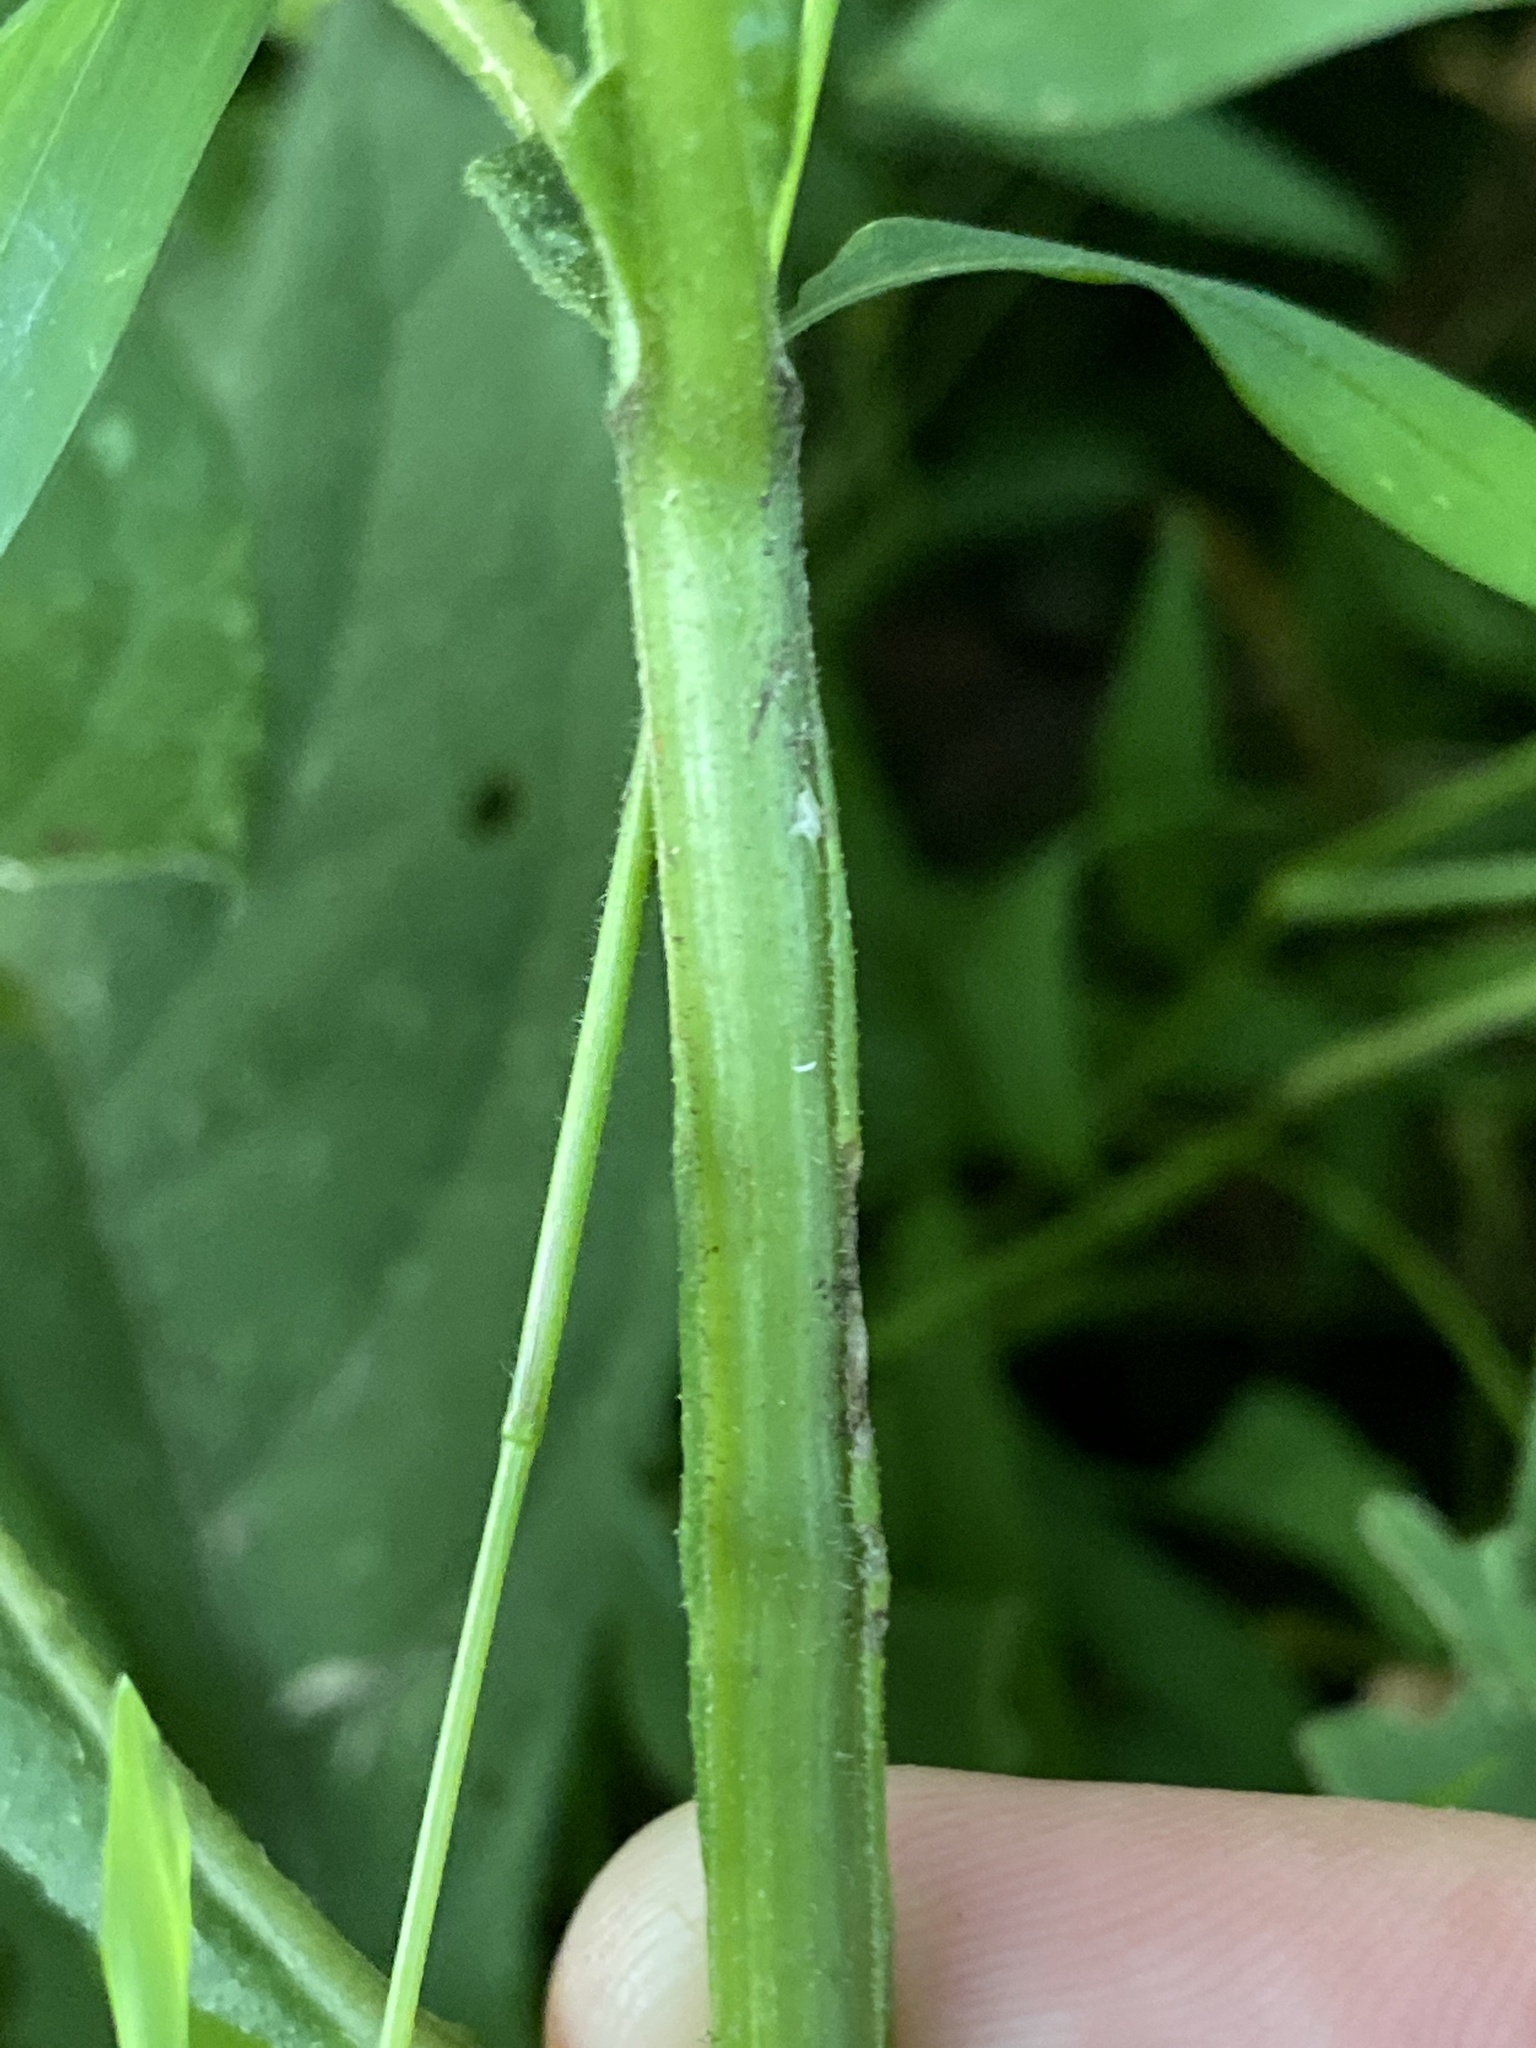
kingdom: Plantae
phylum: Tracheophyta
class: Magnoliopsida
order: Asterales
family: Asteraceae
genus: Verbesina
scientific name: Verbesina alternifolia
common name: Wingstem
